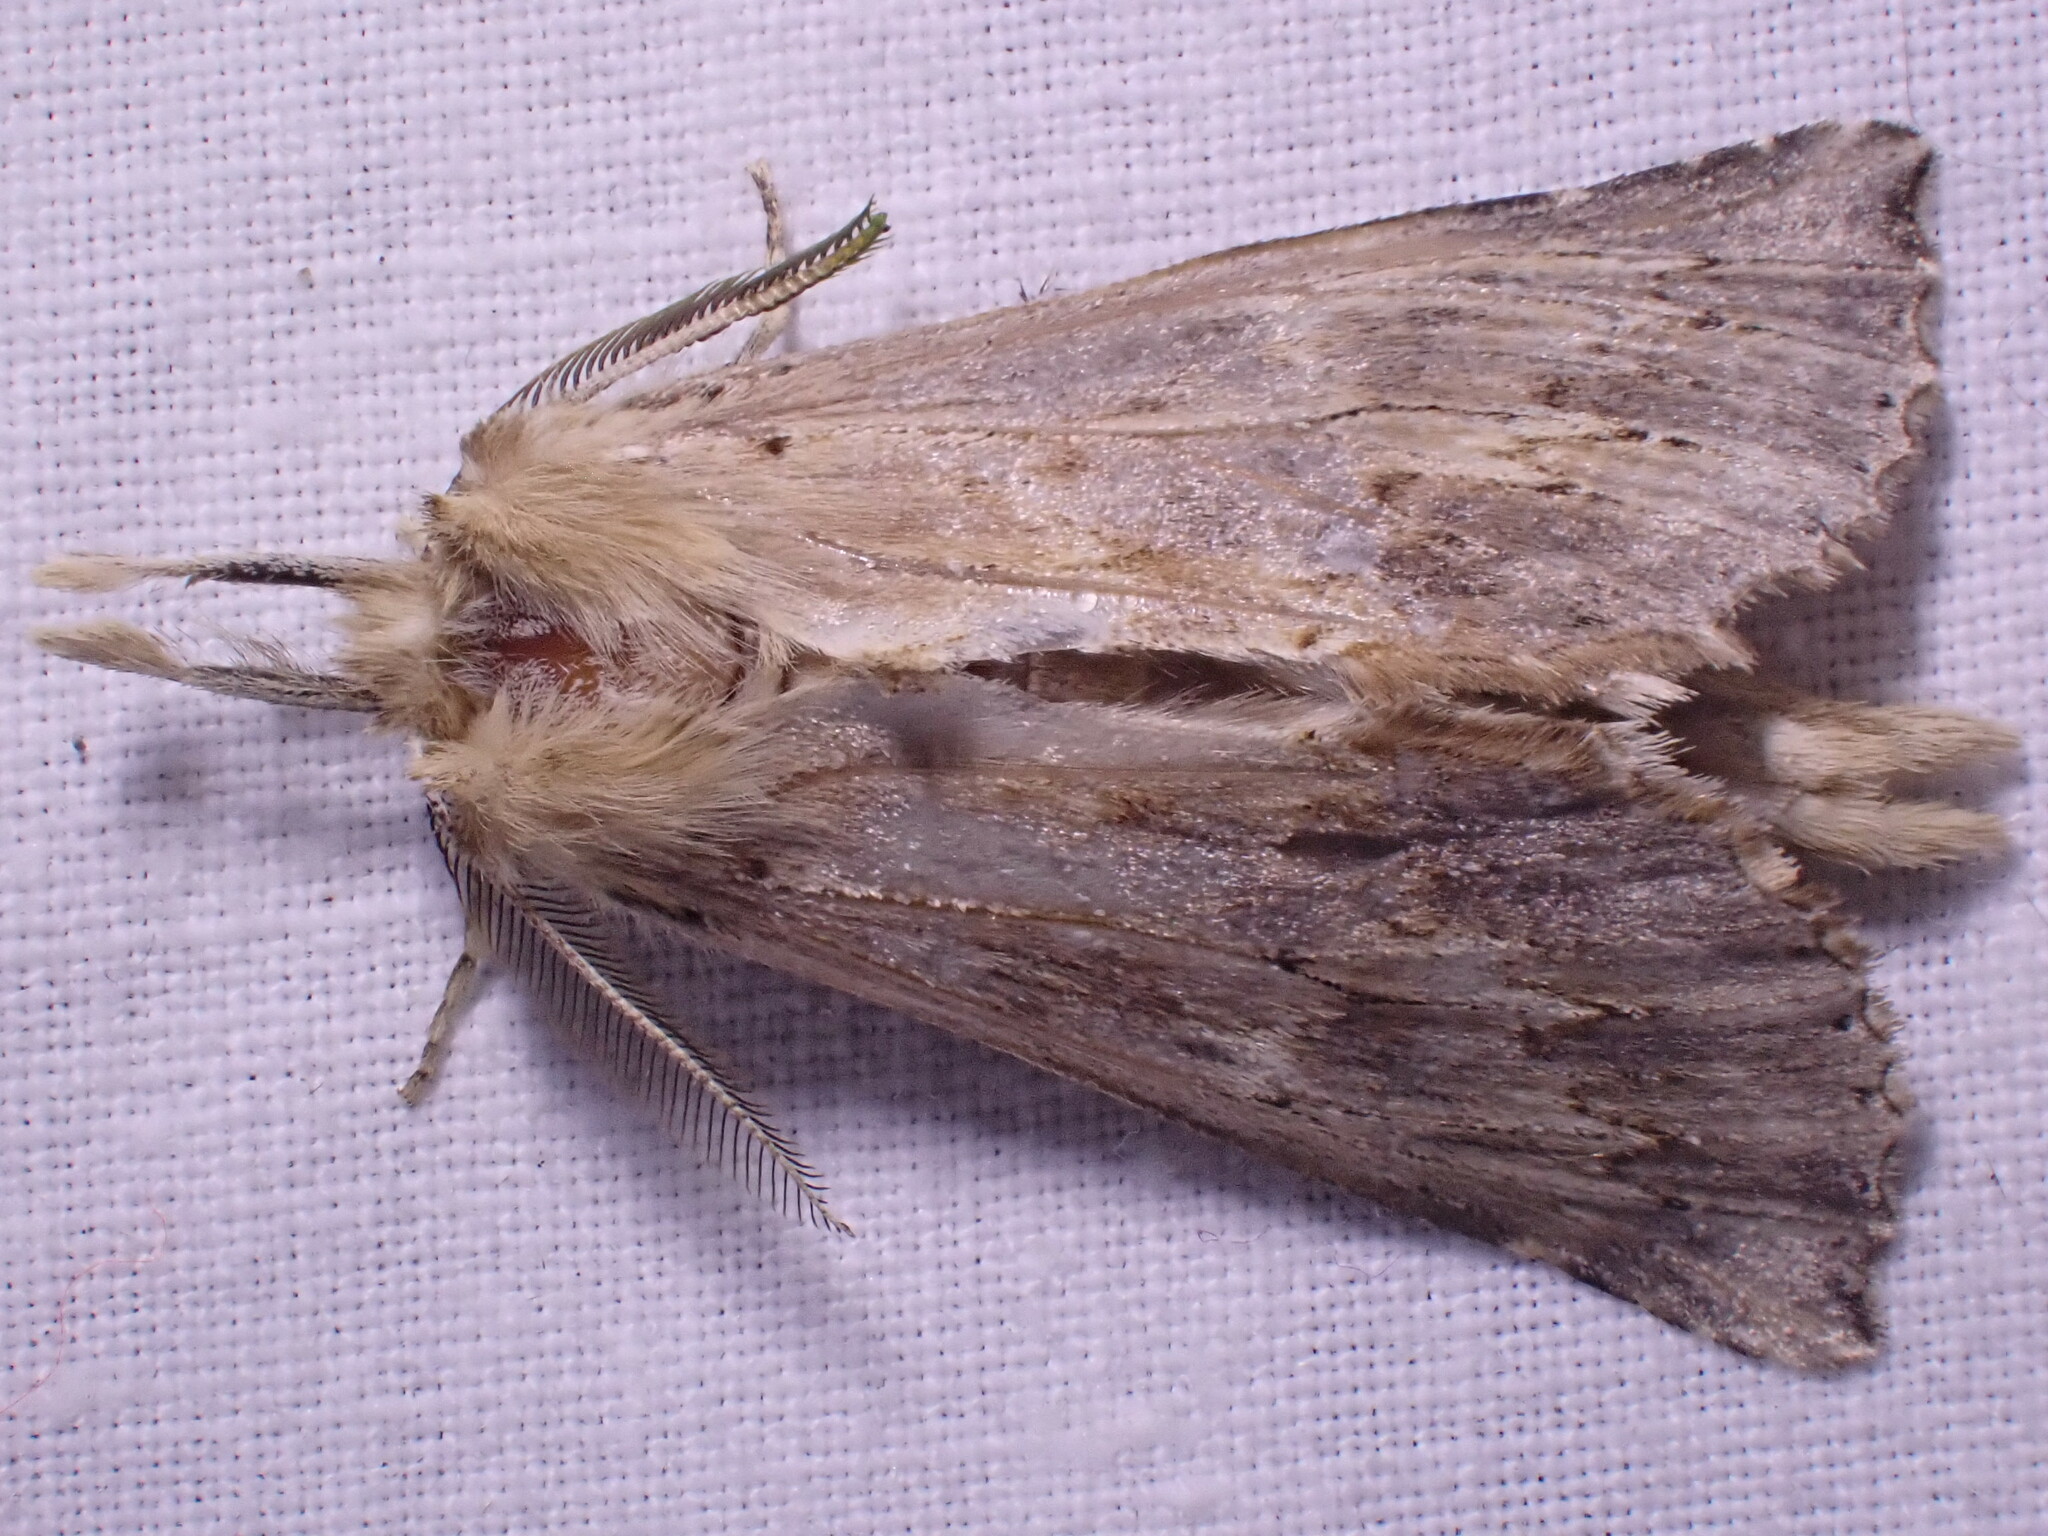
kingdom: Animalia
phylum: Arthropoda
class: Insecta
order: Lepidoptera
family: Notodontidae
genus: Pterostoma
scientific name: Pterostoma palpina
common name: Pale prominent
